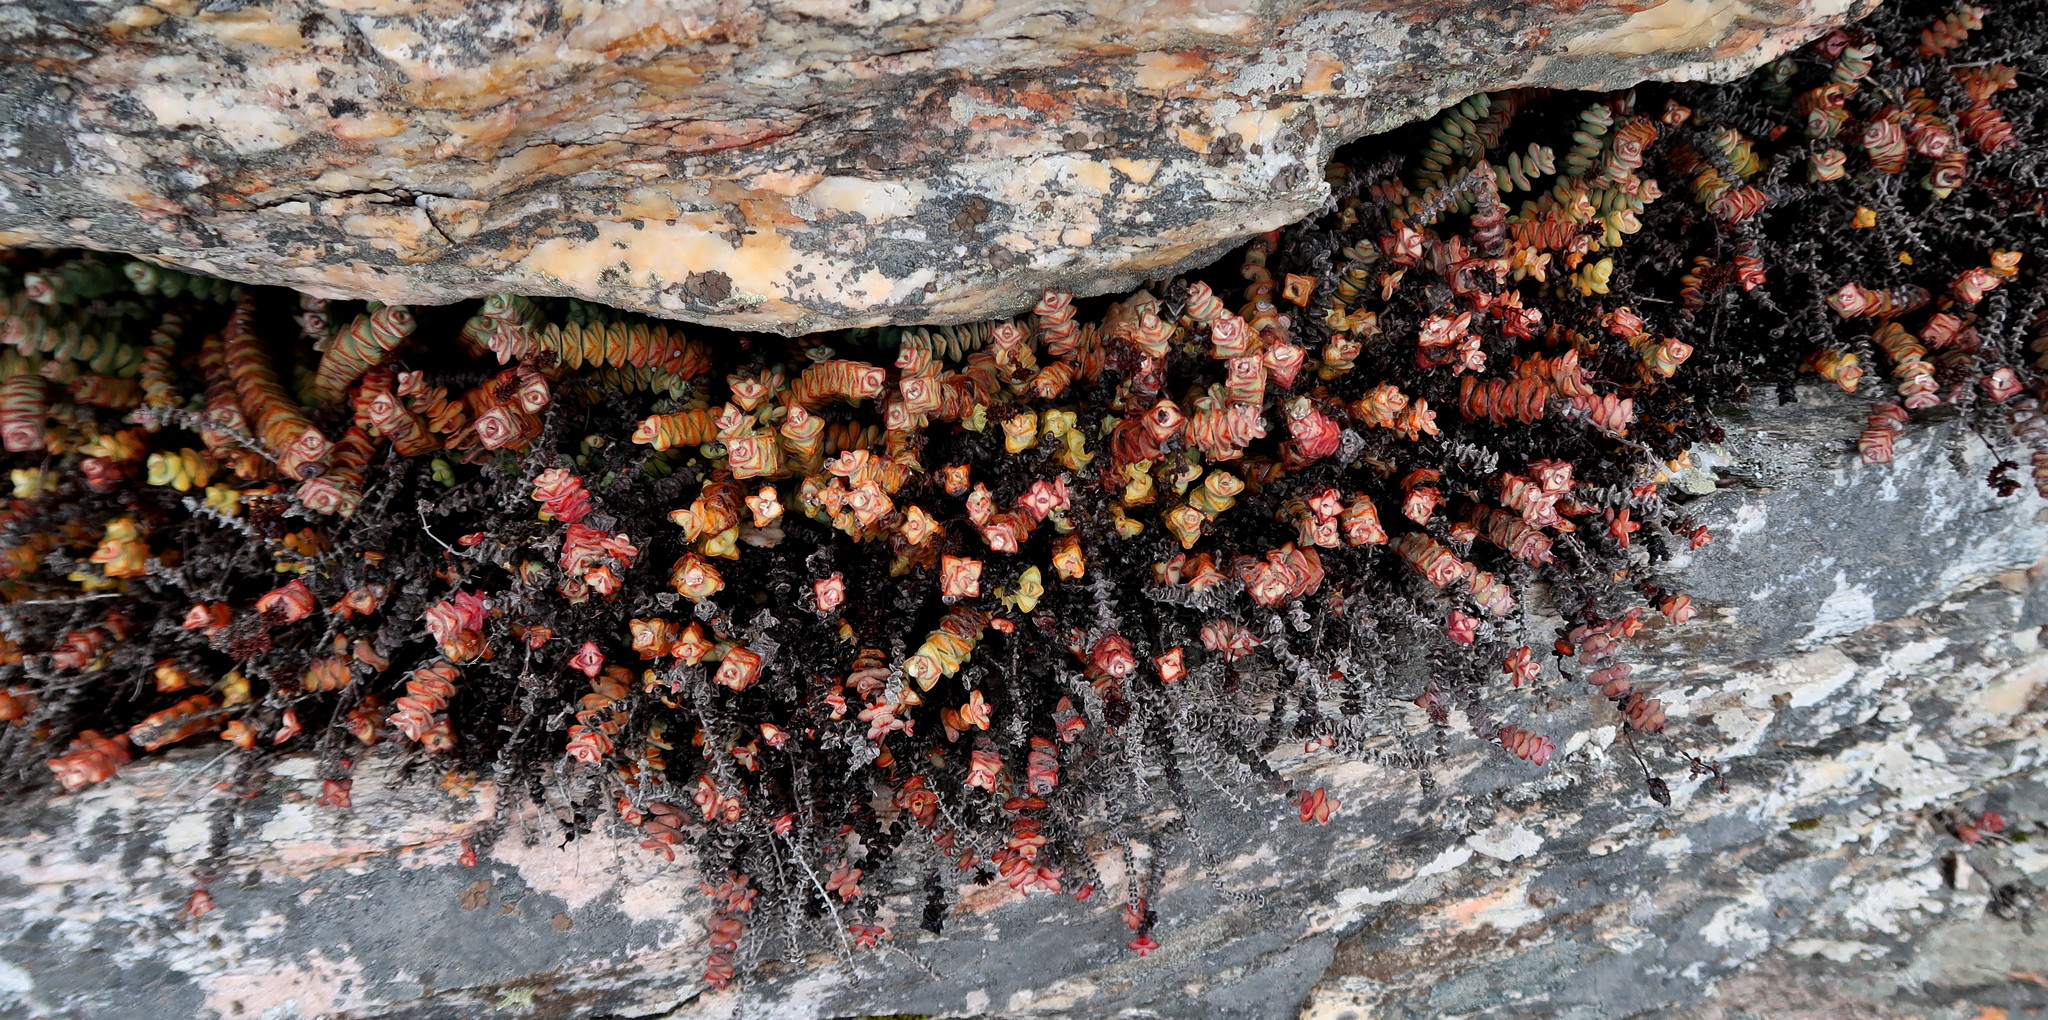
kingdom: Plantae
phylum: Tracheophyta
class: Magnoliopsida
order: Saxifragales
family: Crassulaceae
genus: Crassula
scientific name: Crassula perforata
